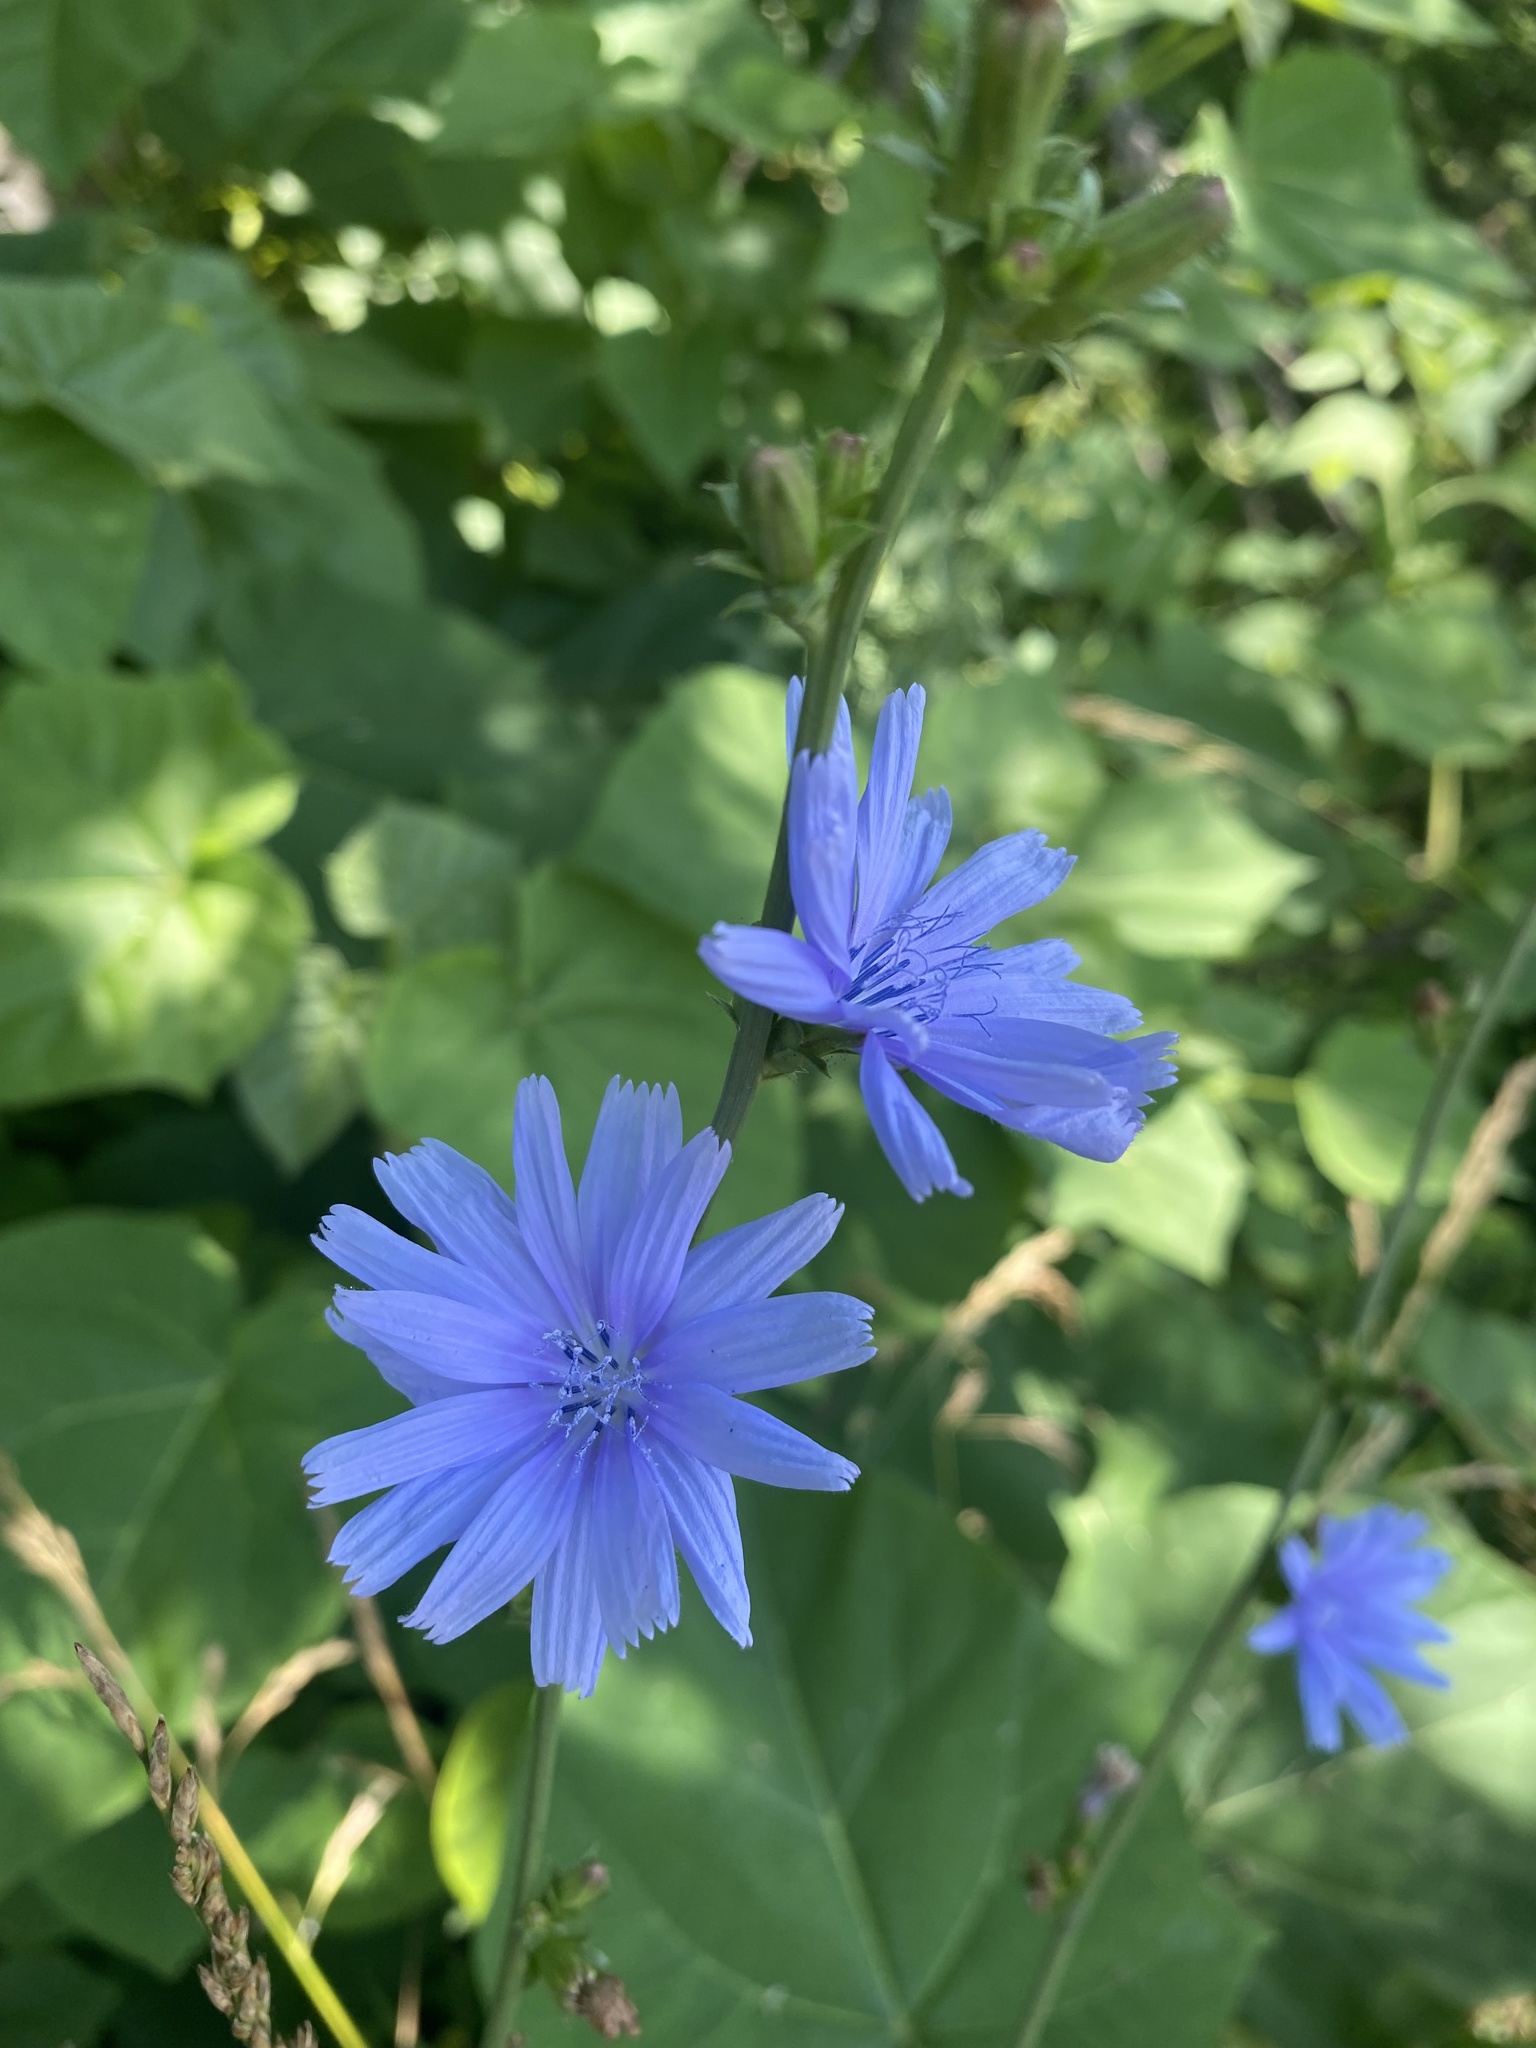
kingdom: Plantae
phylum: Tracheophyta
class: Magnoliopsida
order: Asterales
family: Asteraceae
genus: Cichorium
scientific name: Cichorium intybus
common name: Chicory
